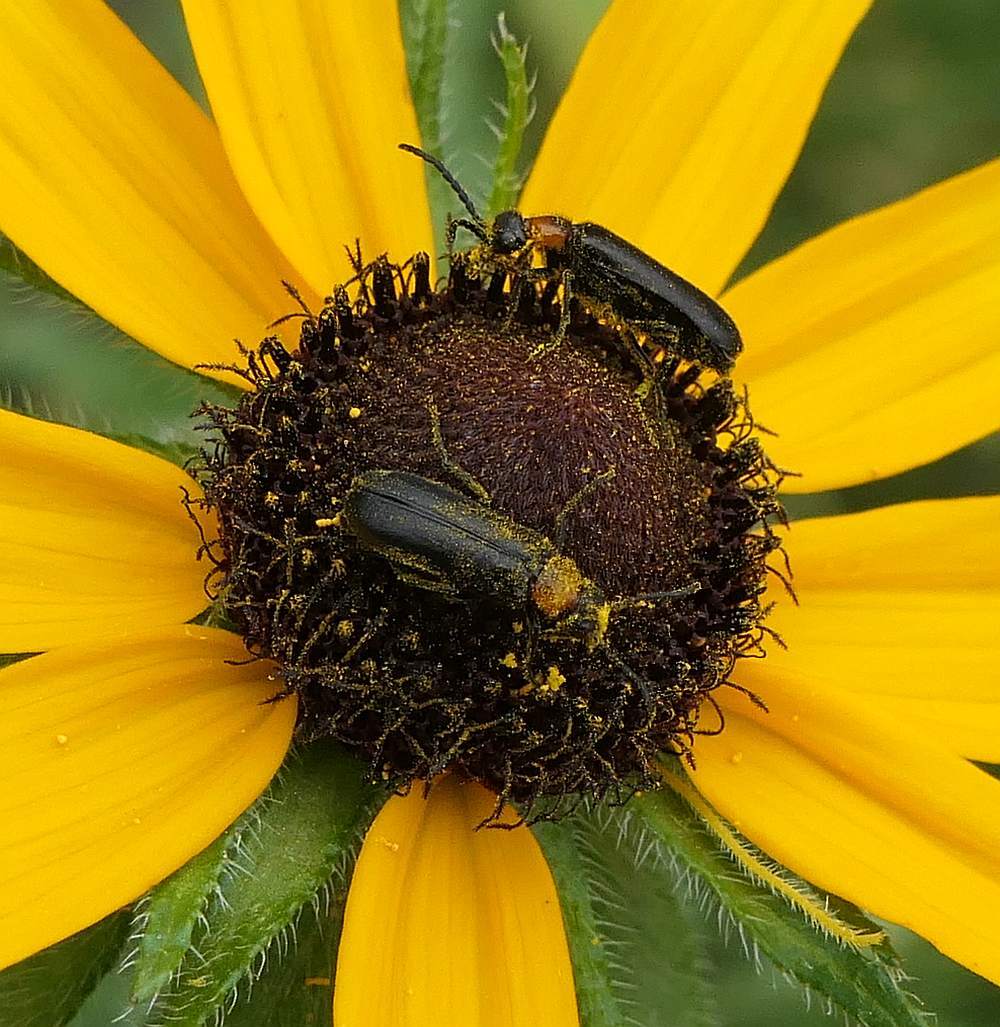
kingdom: Animalia
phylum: Arthropoda
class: Insecta
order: Coleoptera
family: Meloidae
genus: Nemognatha
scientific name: Nemognatha nemorensis
